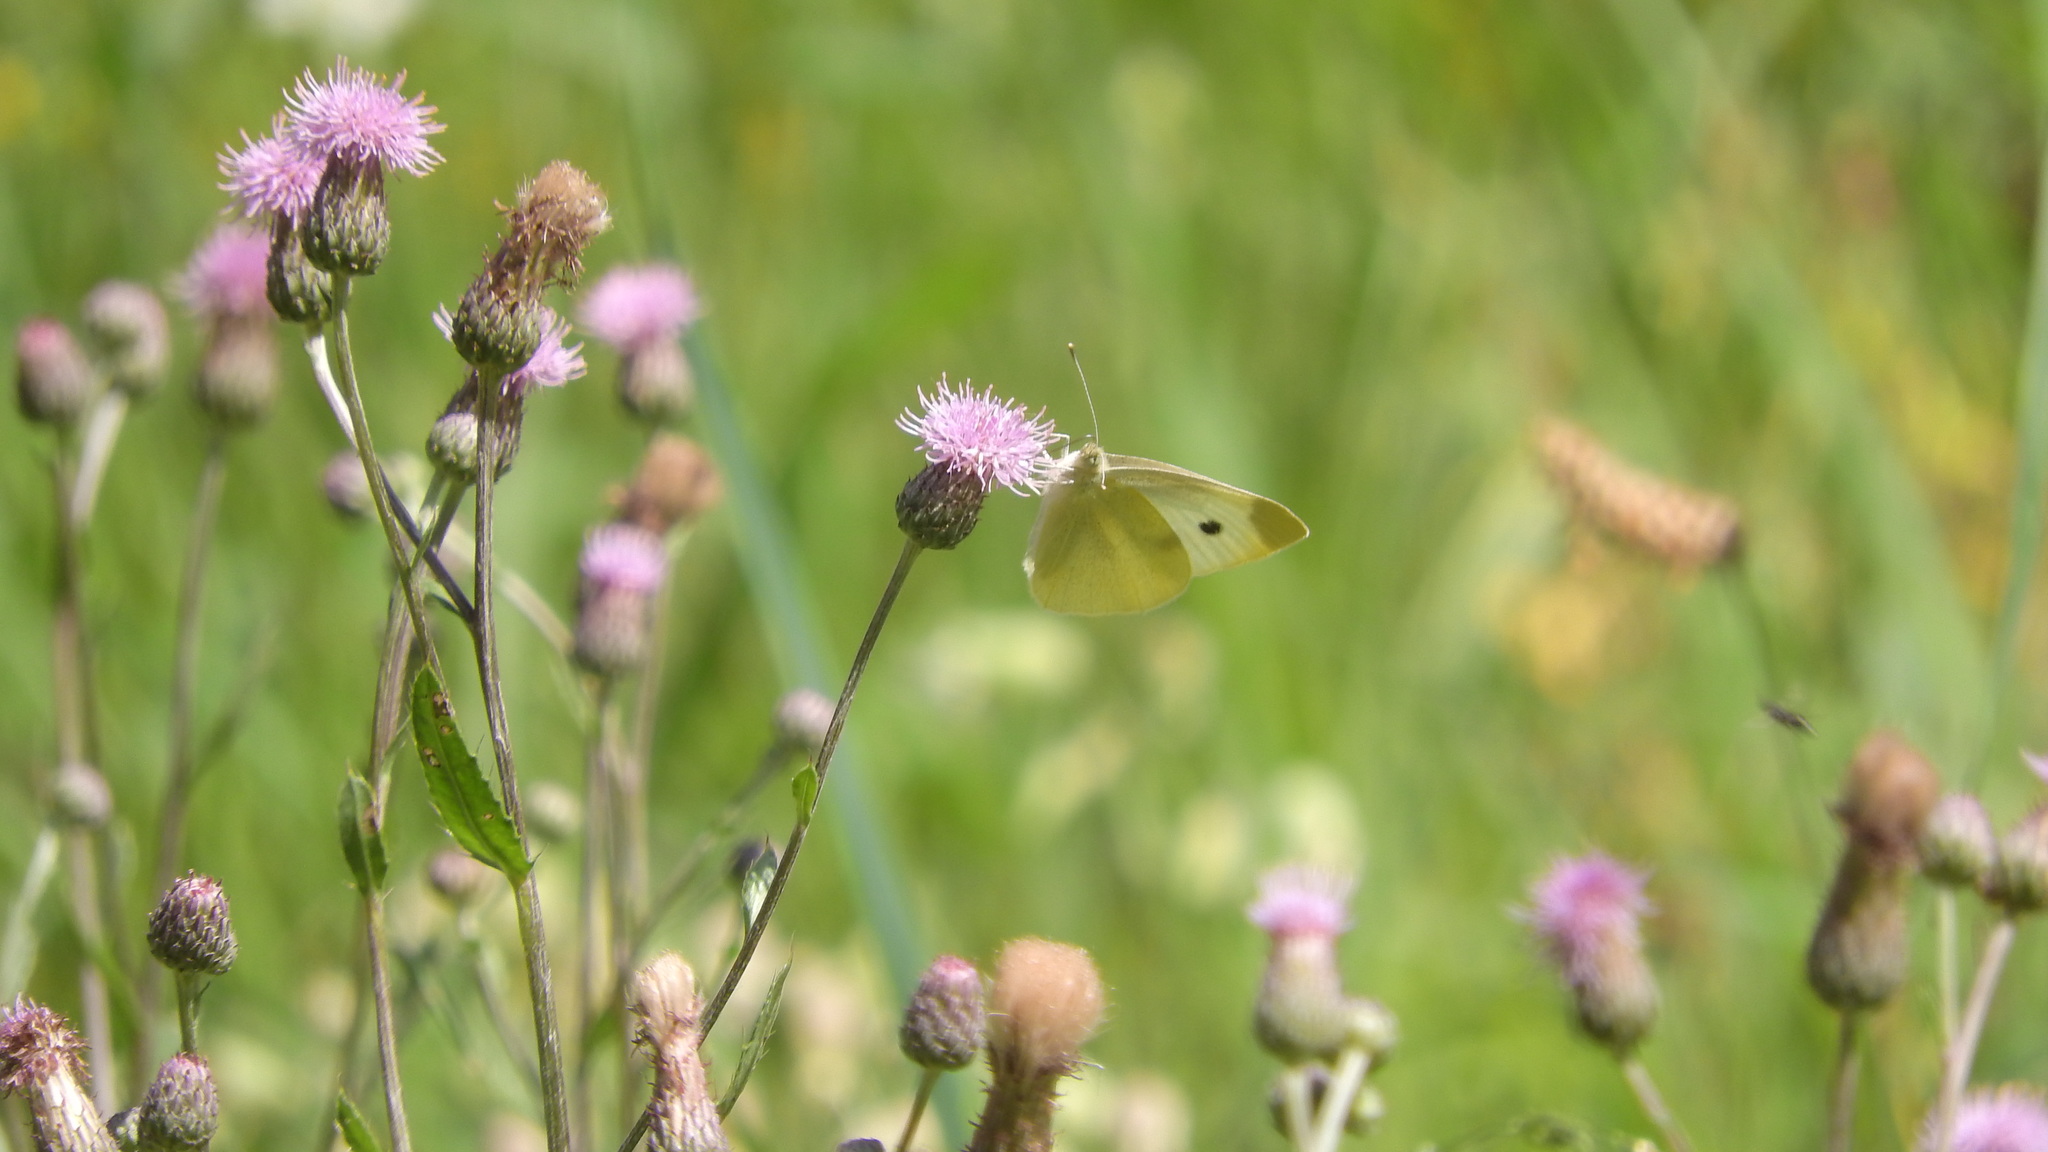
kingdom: Animalia
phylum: Arthropoda
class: Insecta
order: Lepidoptera
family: Pieridae
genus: Pieris
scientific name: Pieris rapae
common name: Small white
